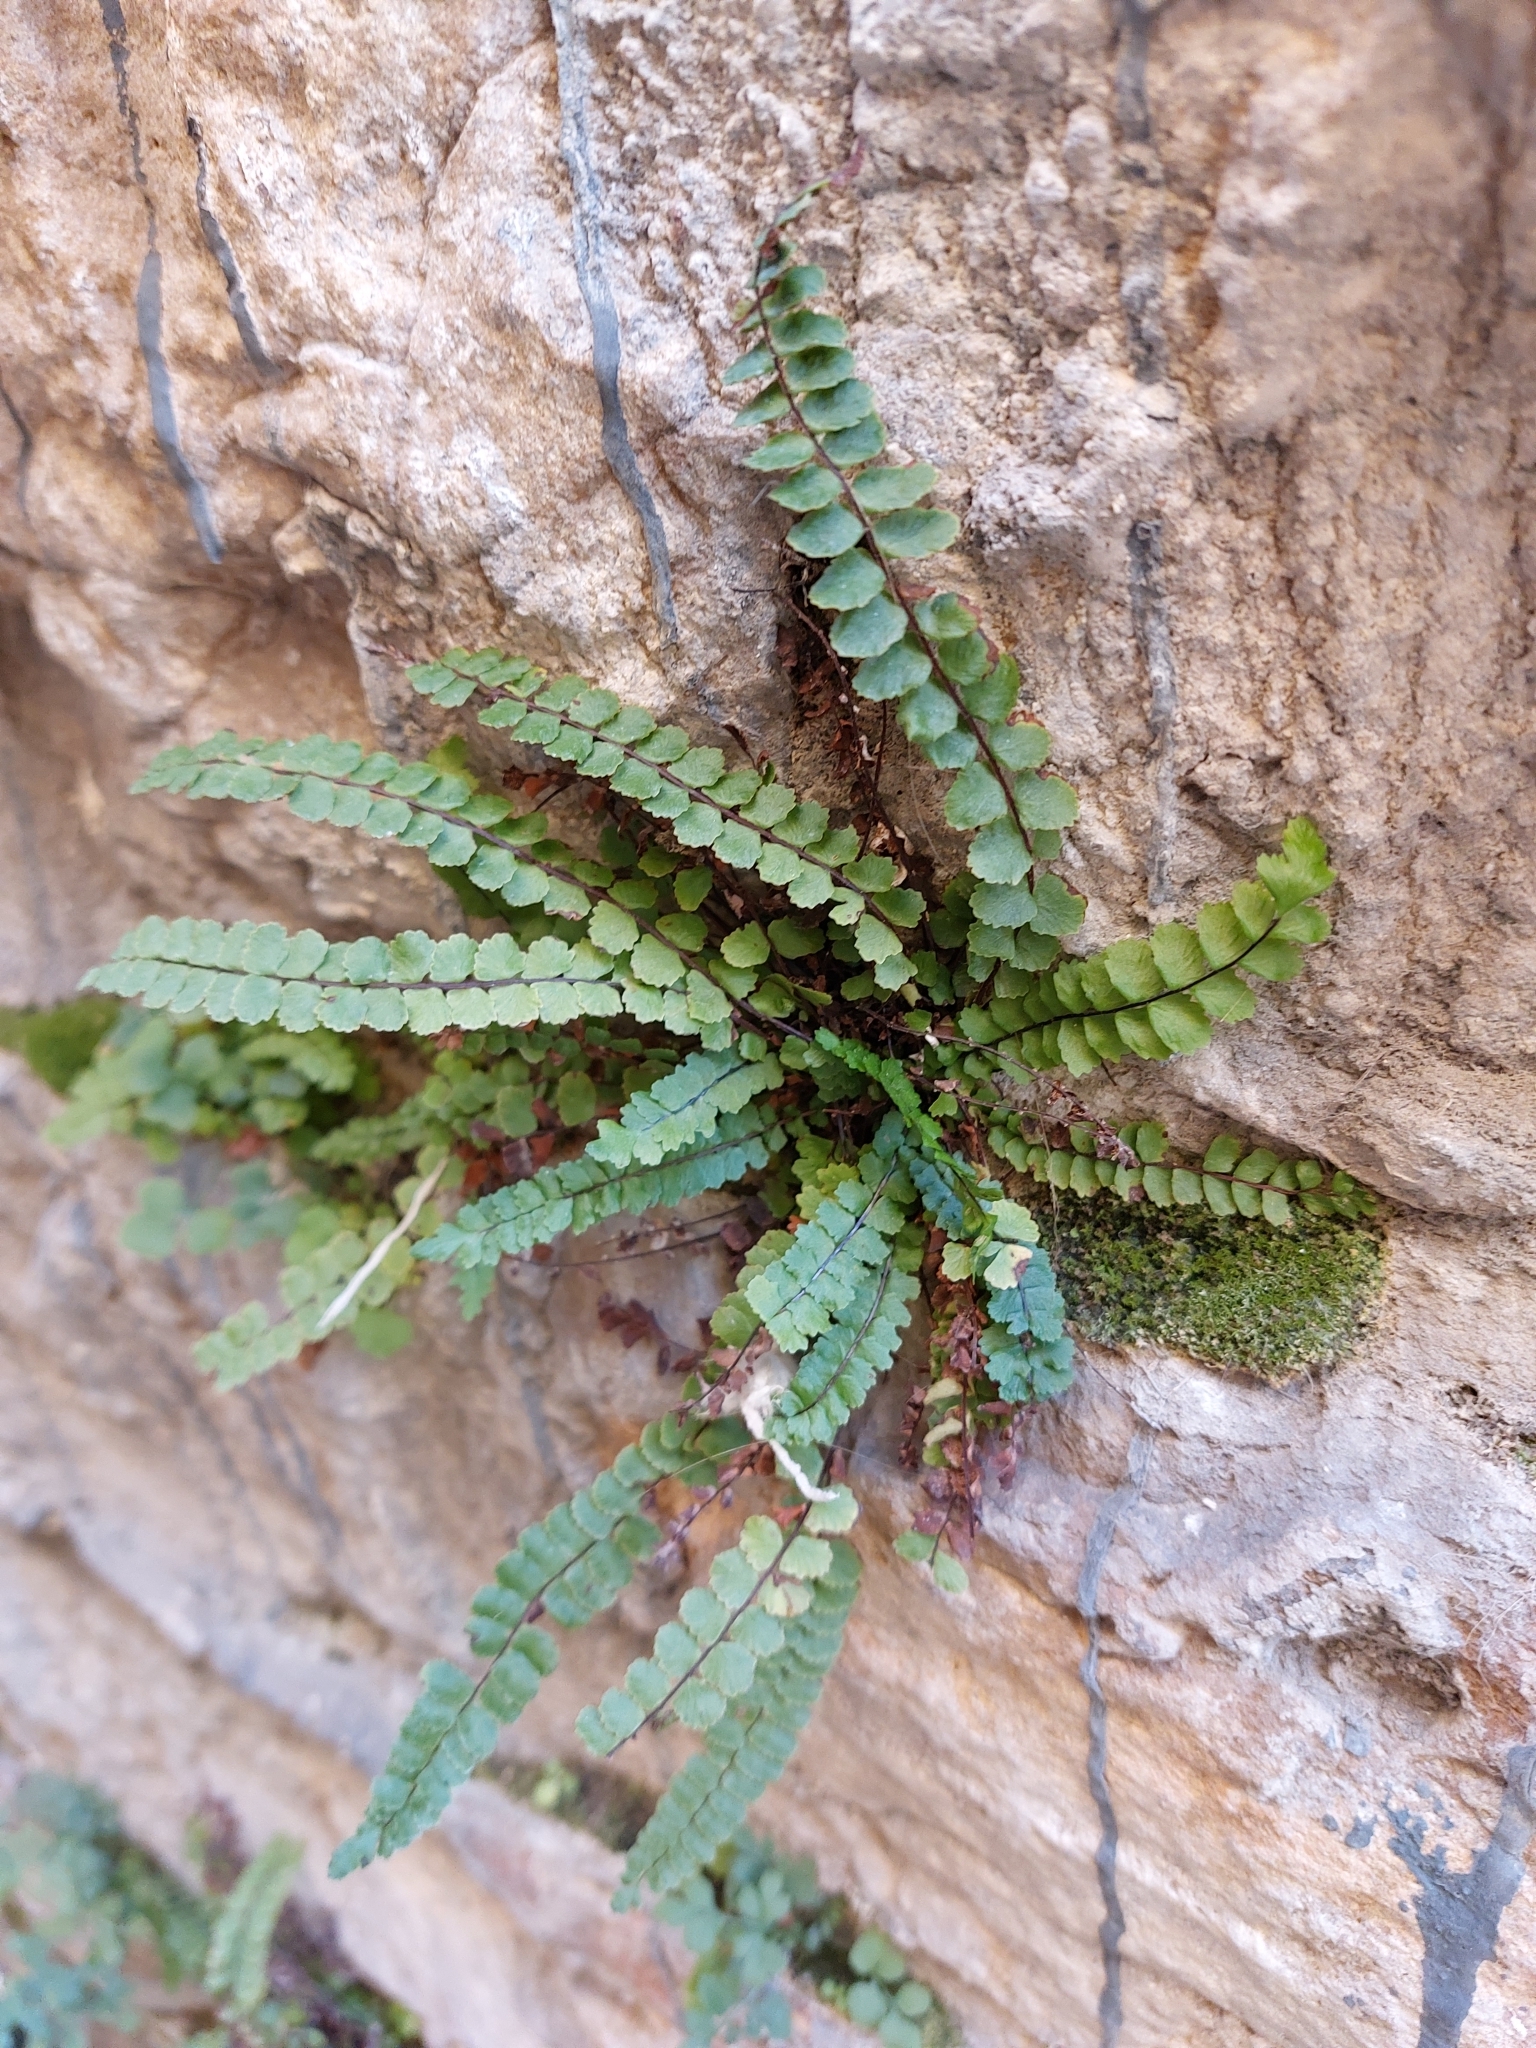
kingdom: Plantae
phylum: Tracheophyta
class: Polypodiopsida
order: Polypodiales
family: Aspleniaceae
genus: Asplenium
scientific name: Asplenium trichomanes
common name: Maidenhair spleenwort
